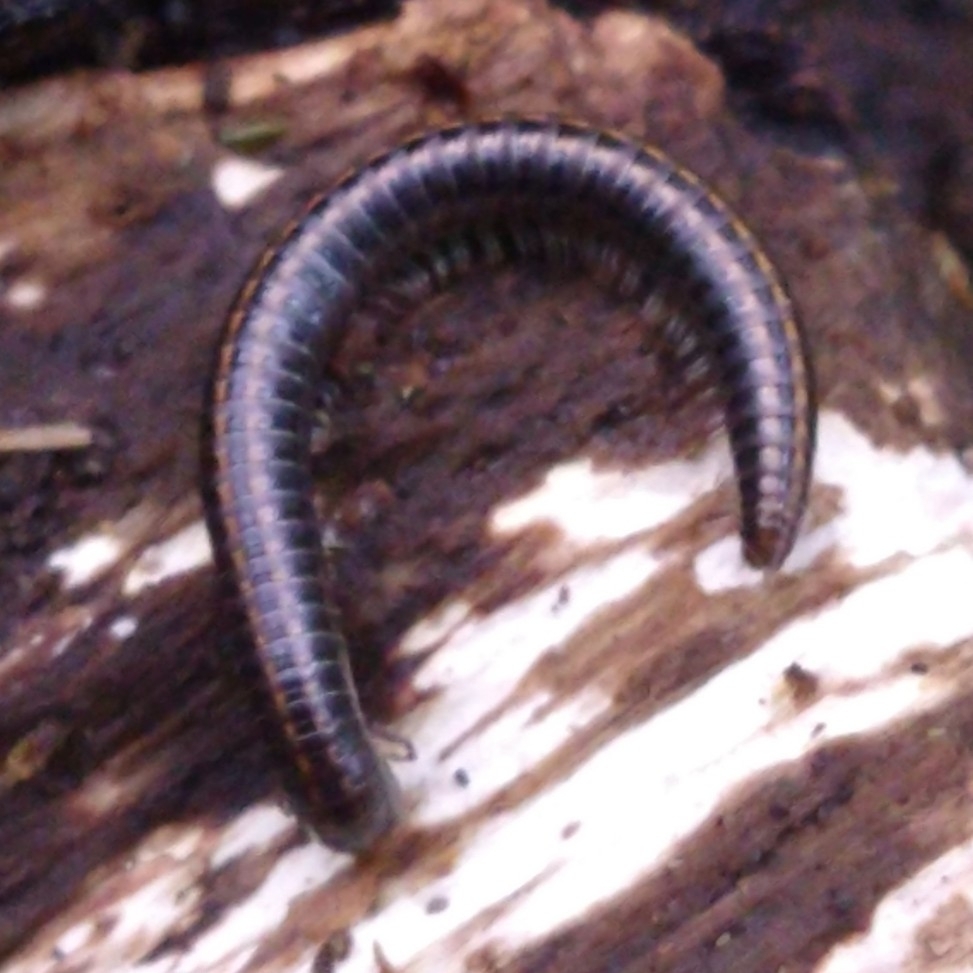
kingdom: Animalia
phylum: Arthropoda
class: Diplopoda
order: Julida
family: Julidae
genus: Ommatoiulus
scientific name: Ommatoiulus sabulosus
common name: Striped millipede
